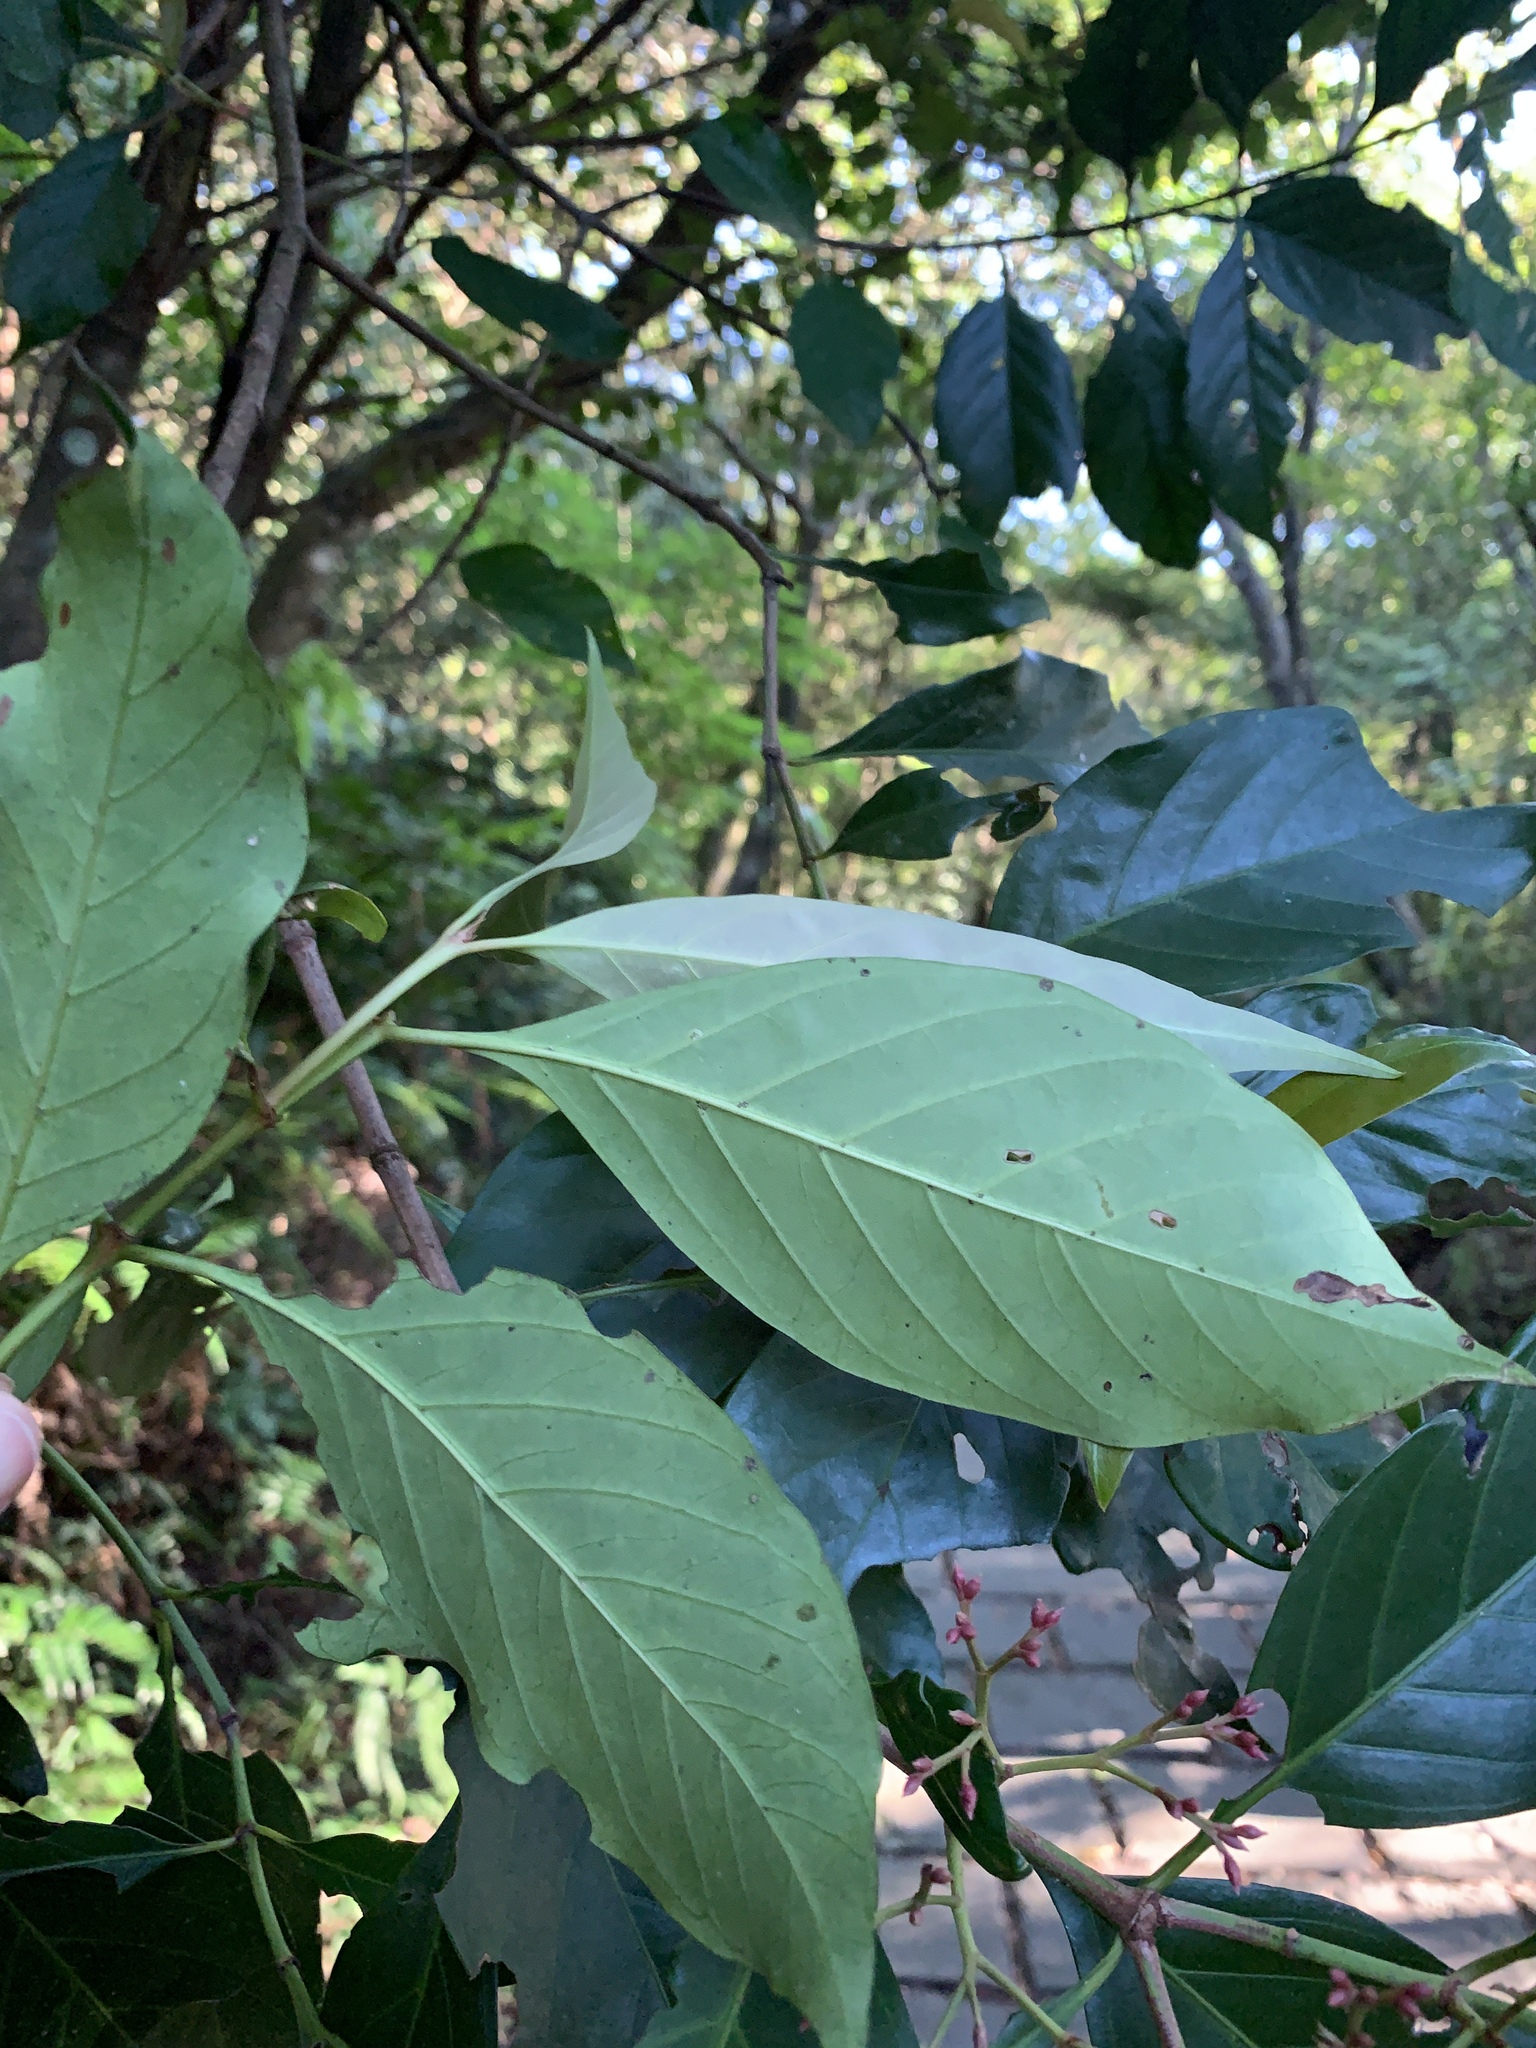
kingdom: Plantae
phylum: Tracheophyta
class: Magnoliopsida
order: Gentianales
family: Rubiaceae
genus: Aidia
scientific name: Aidia cochinchinensis
